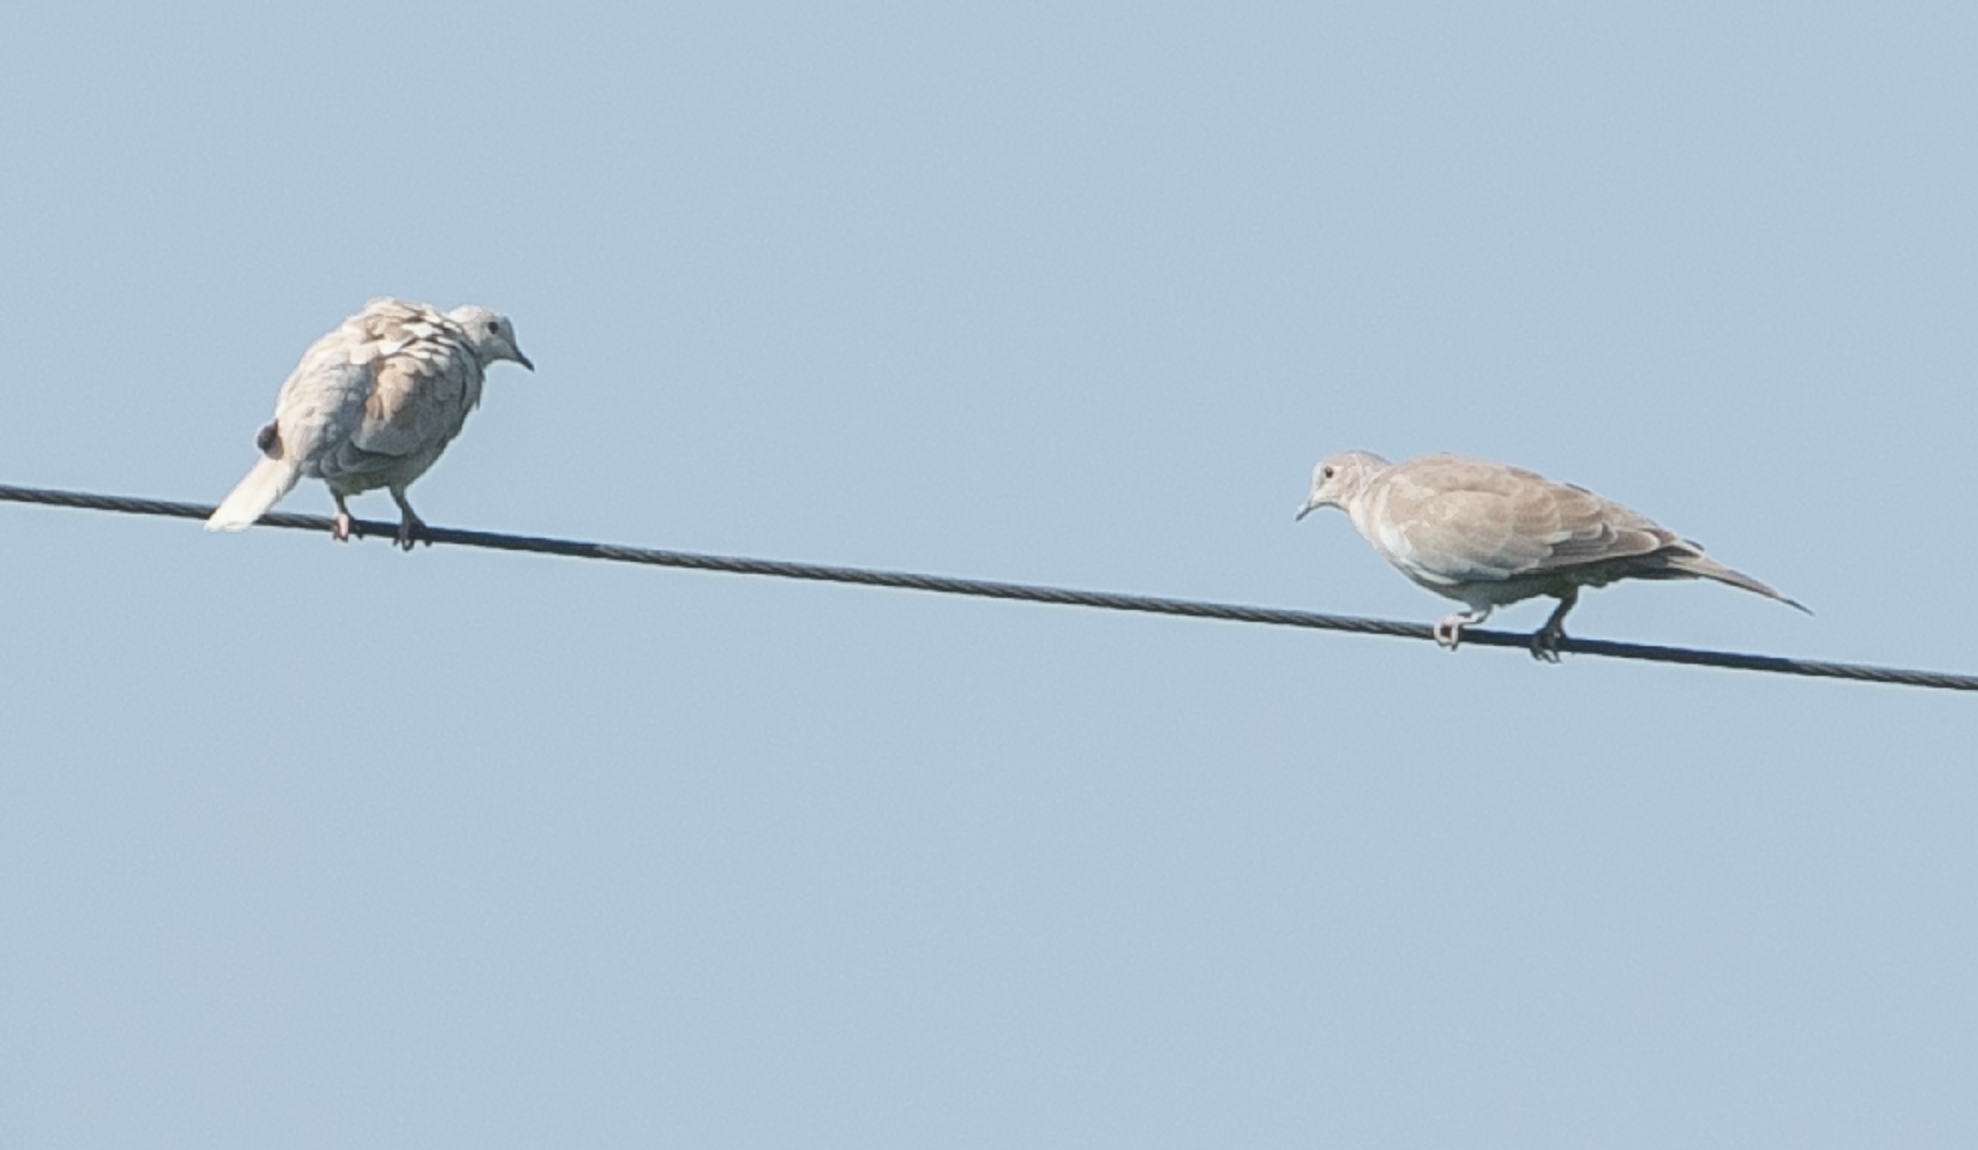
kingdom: Animalia
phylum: Chordata
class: Aves
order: Columbiformes
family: Columbidae
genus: Streptopelia
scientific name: Streptopelia decaocto
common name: Eurasian collared dove
